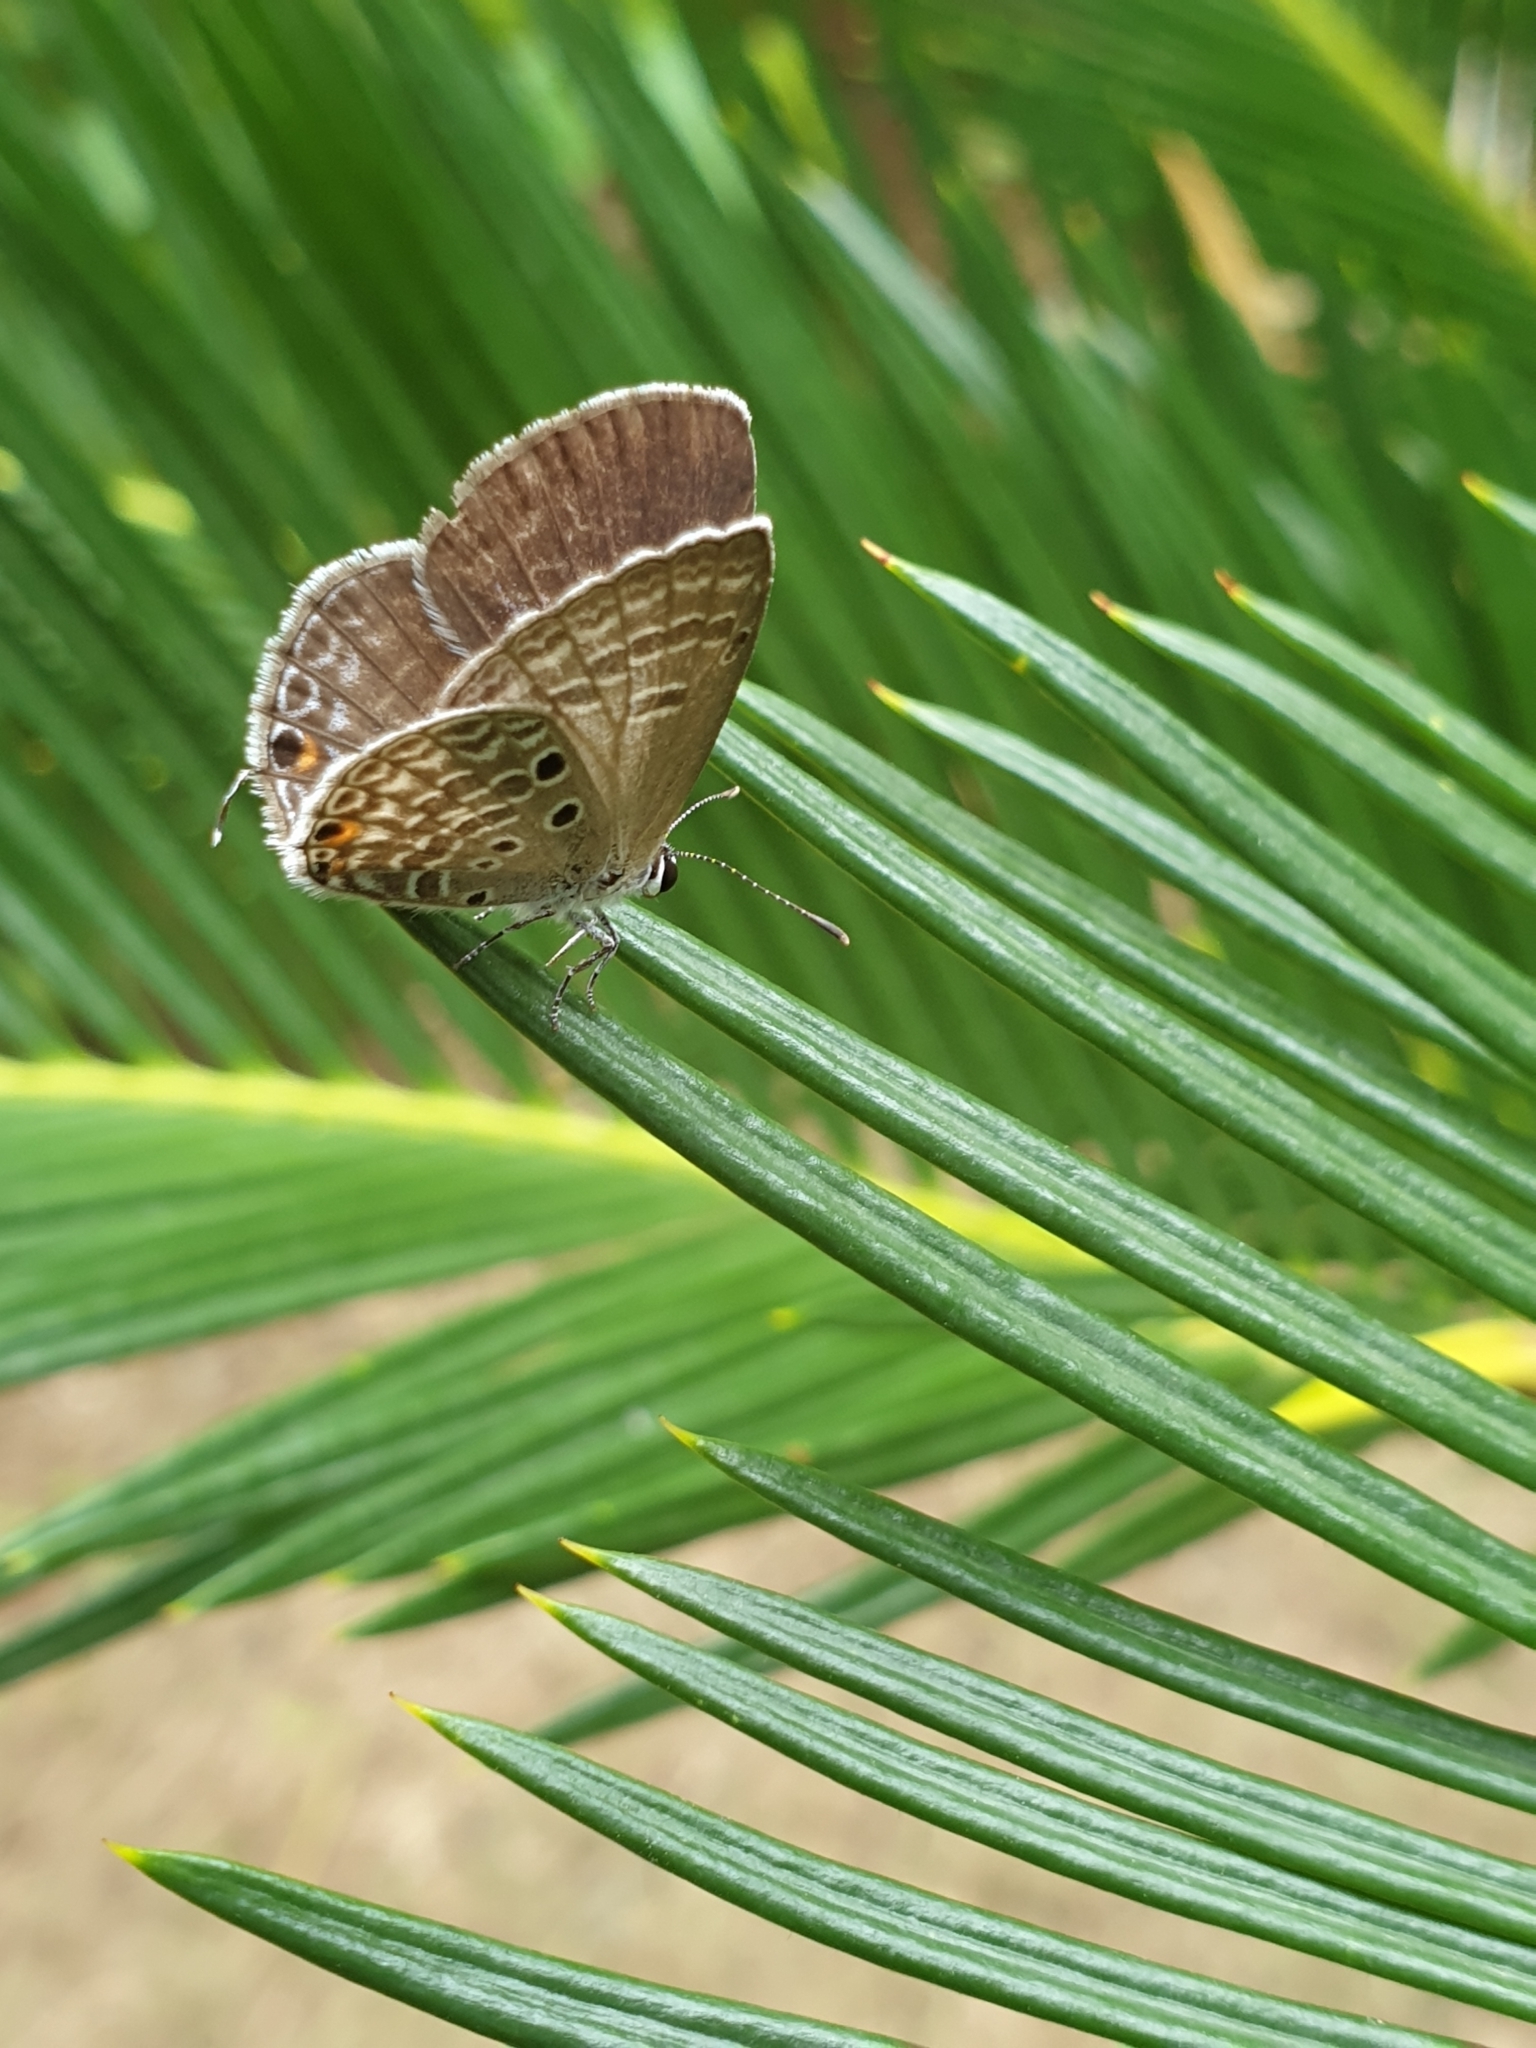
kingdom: Animalia
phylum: Arthropoda
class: Insecta
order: Lepidoptera
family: Lycaenidae
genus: Luthrodes
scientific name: Luthrodes pandava
